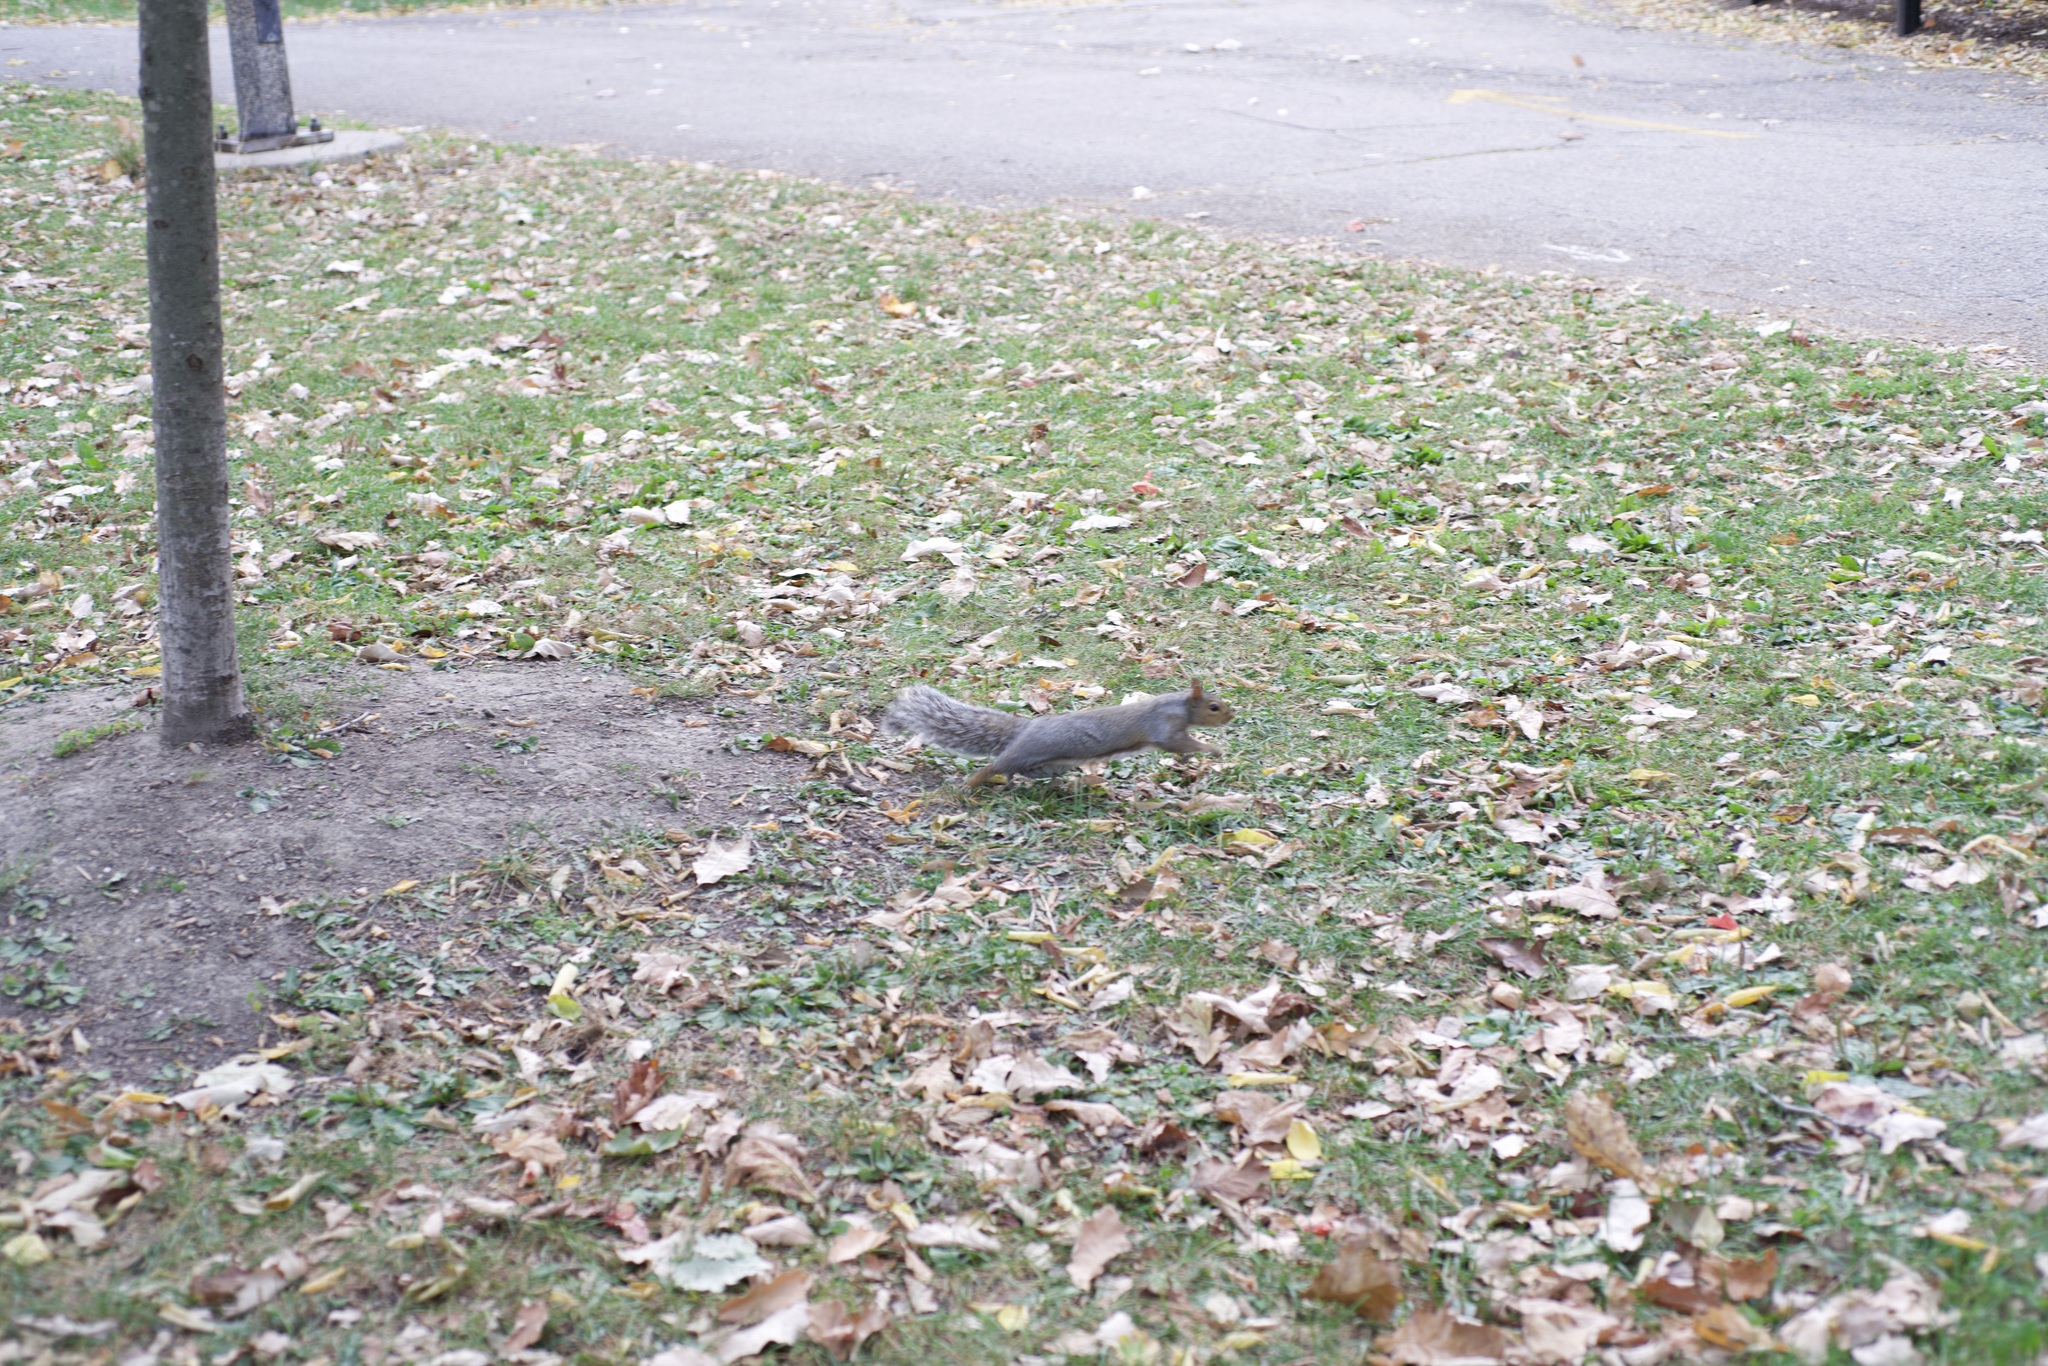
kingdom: Animalia
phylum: Chordata
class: Mammalia
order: Rodentia
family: Sciuridae
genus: Sciurus
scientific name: Sciurus carolinensis
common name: Eastern gray squirrel
